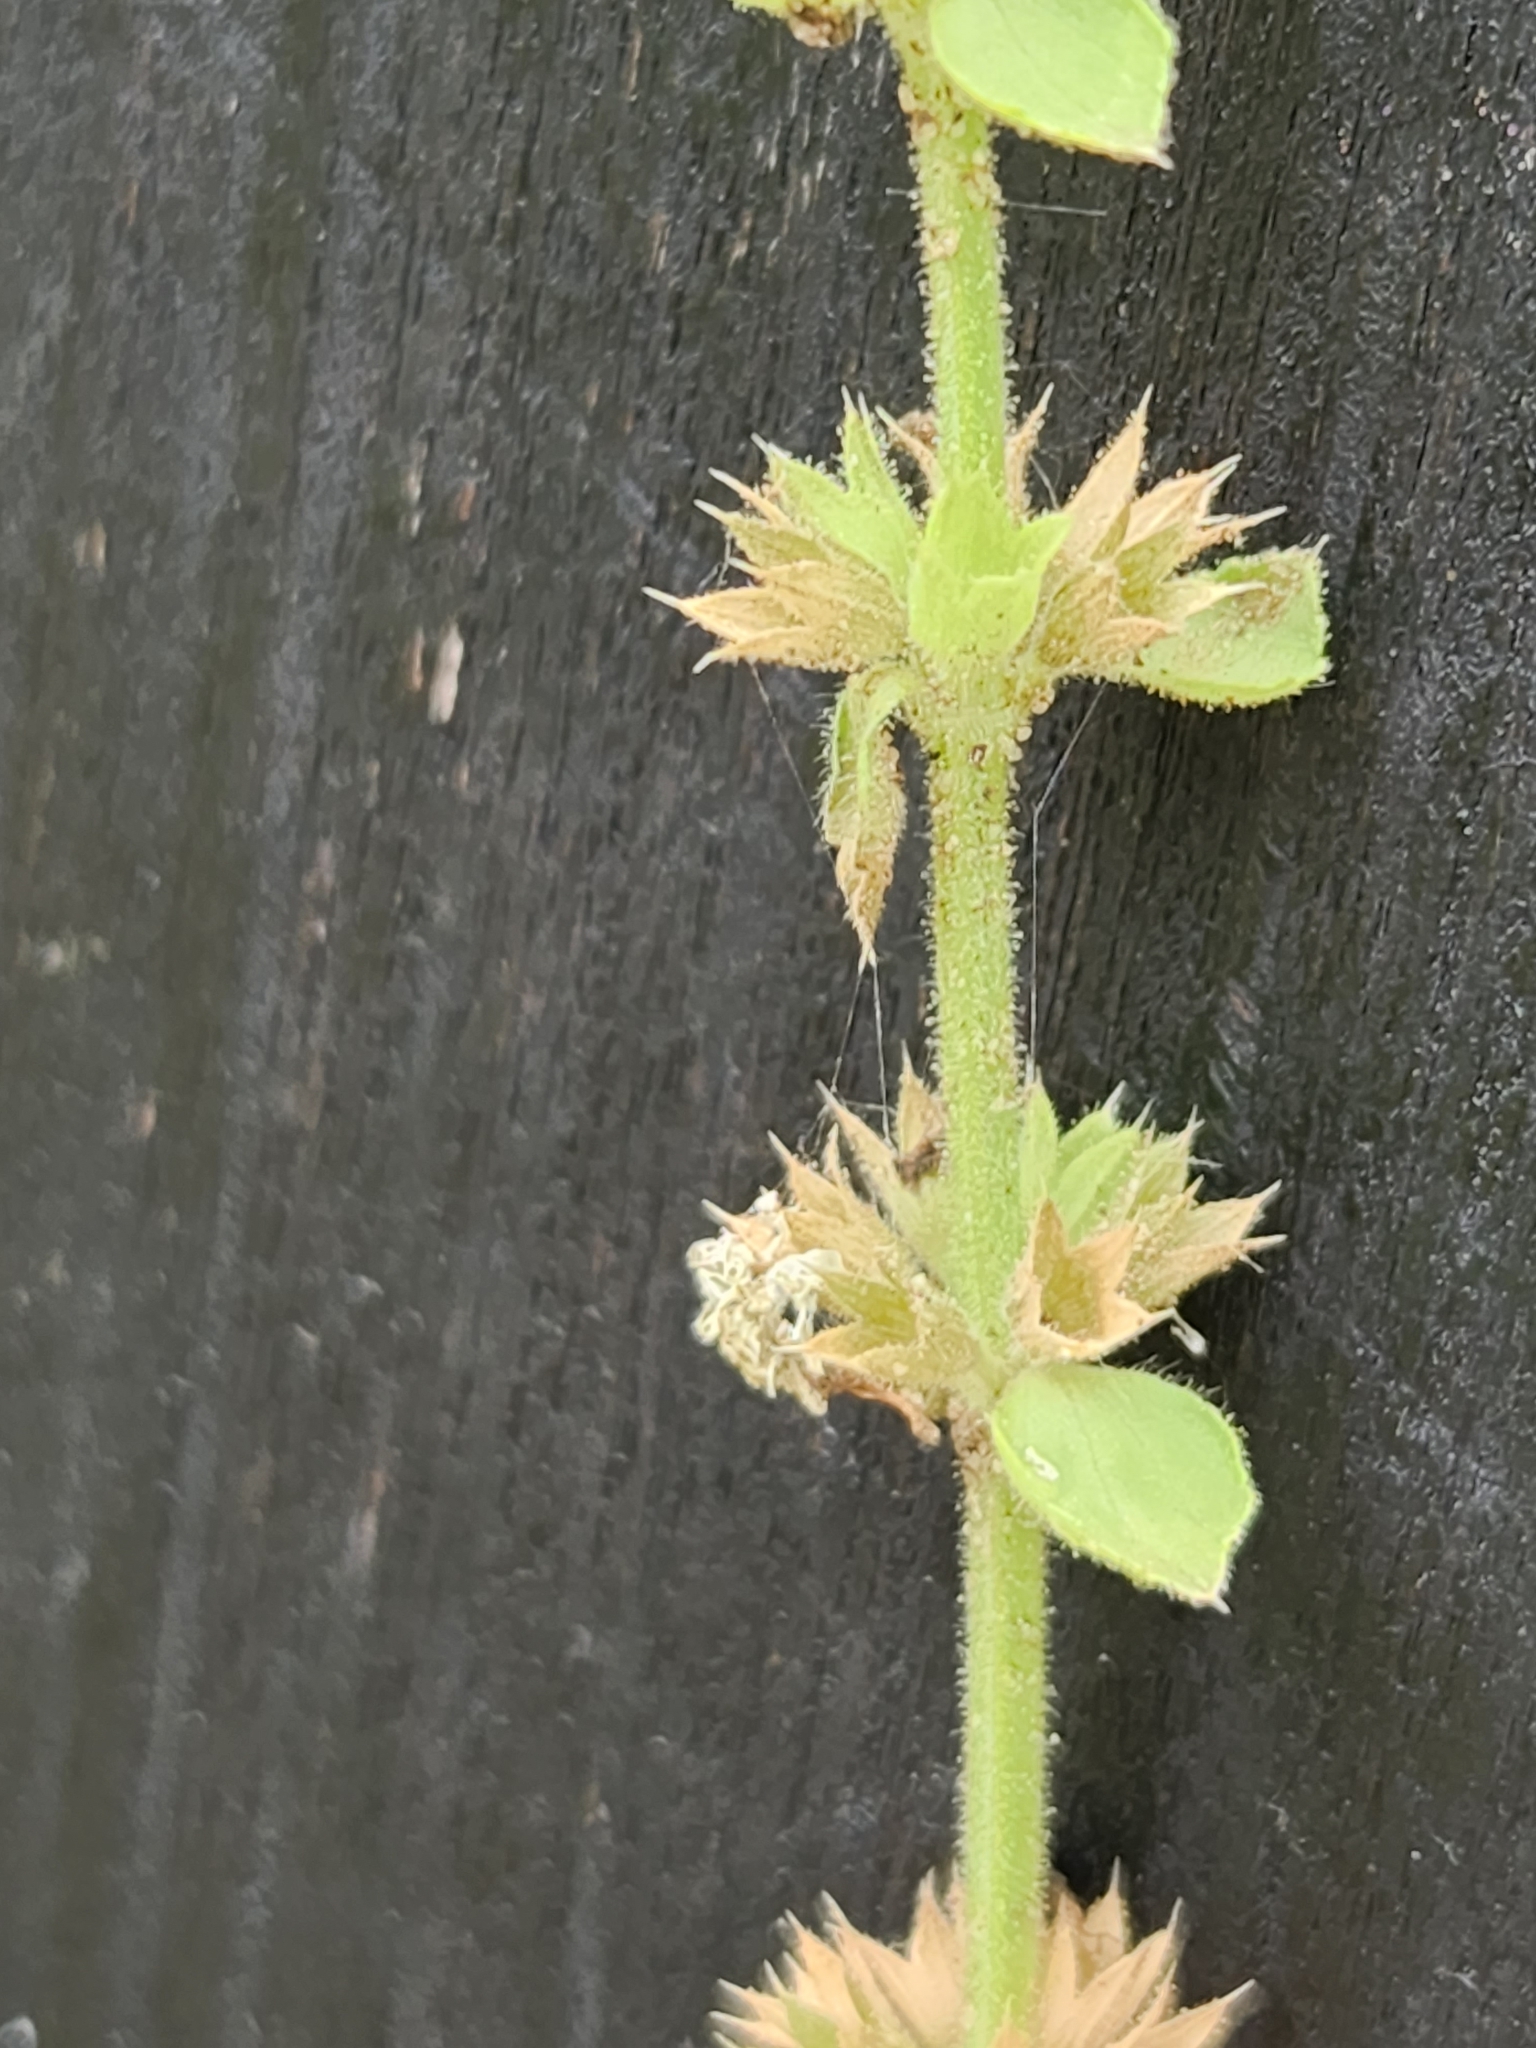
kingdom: Plantae
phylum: Tracheophyta
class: Magnoliopsida
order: Lamiales
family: Lamiaceae
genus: Stachys
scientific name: Stachys
